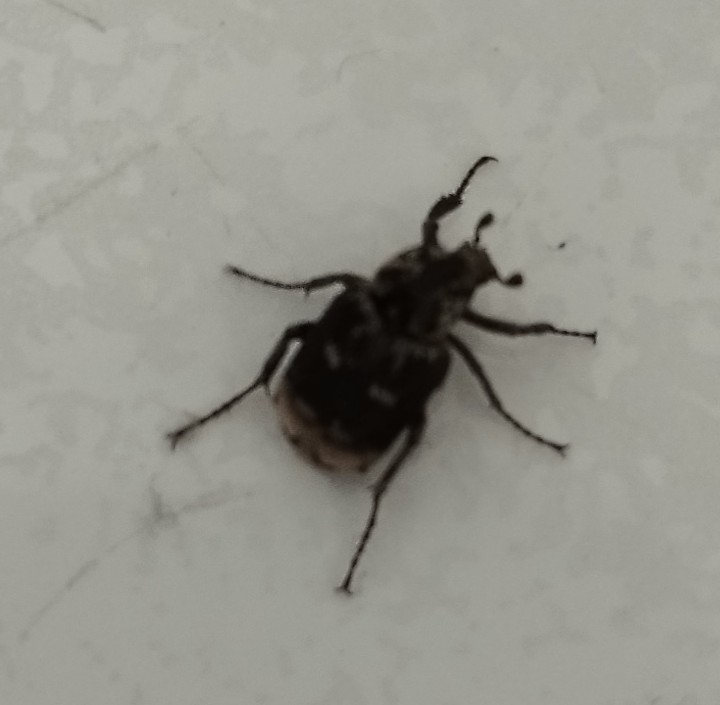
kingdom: Animalia
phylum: Arthropoda
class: Insecta
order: Coleoptera
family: Scarabaeidae
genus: Valgus
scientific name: Valgus hemipterus
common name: Bug flower chafer
